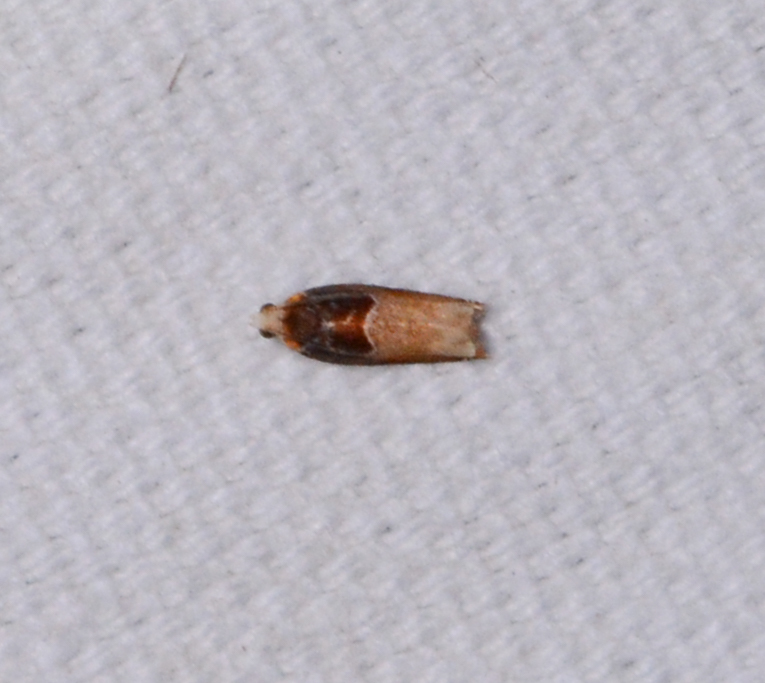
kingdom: Animalia
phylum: Arthropoda
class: Insecta
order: Lepidoptera
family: Tortricidae
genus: Ancylis
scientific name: Ancylis divisana
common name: Two-toned ancylis moth
